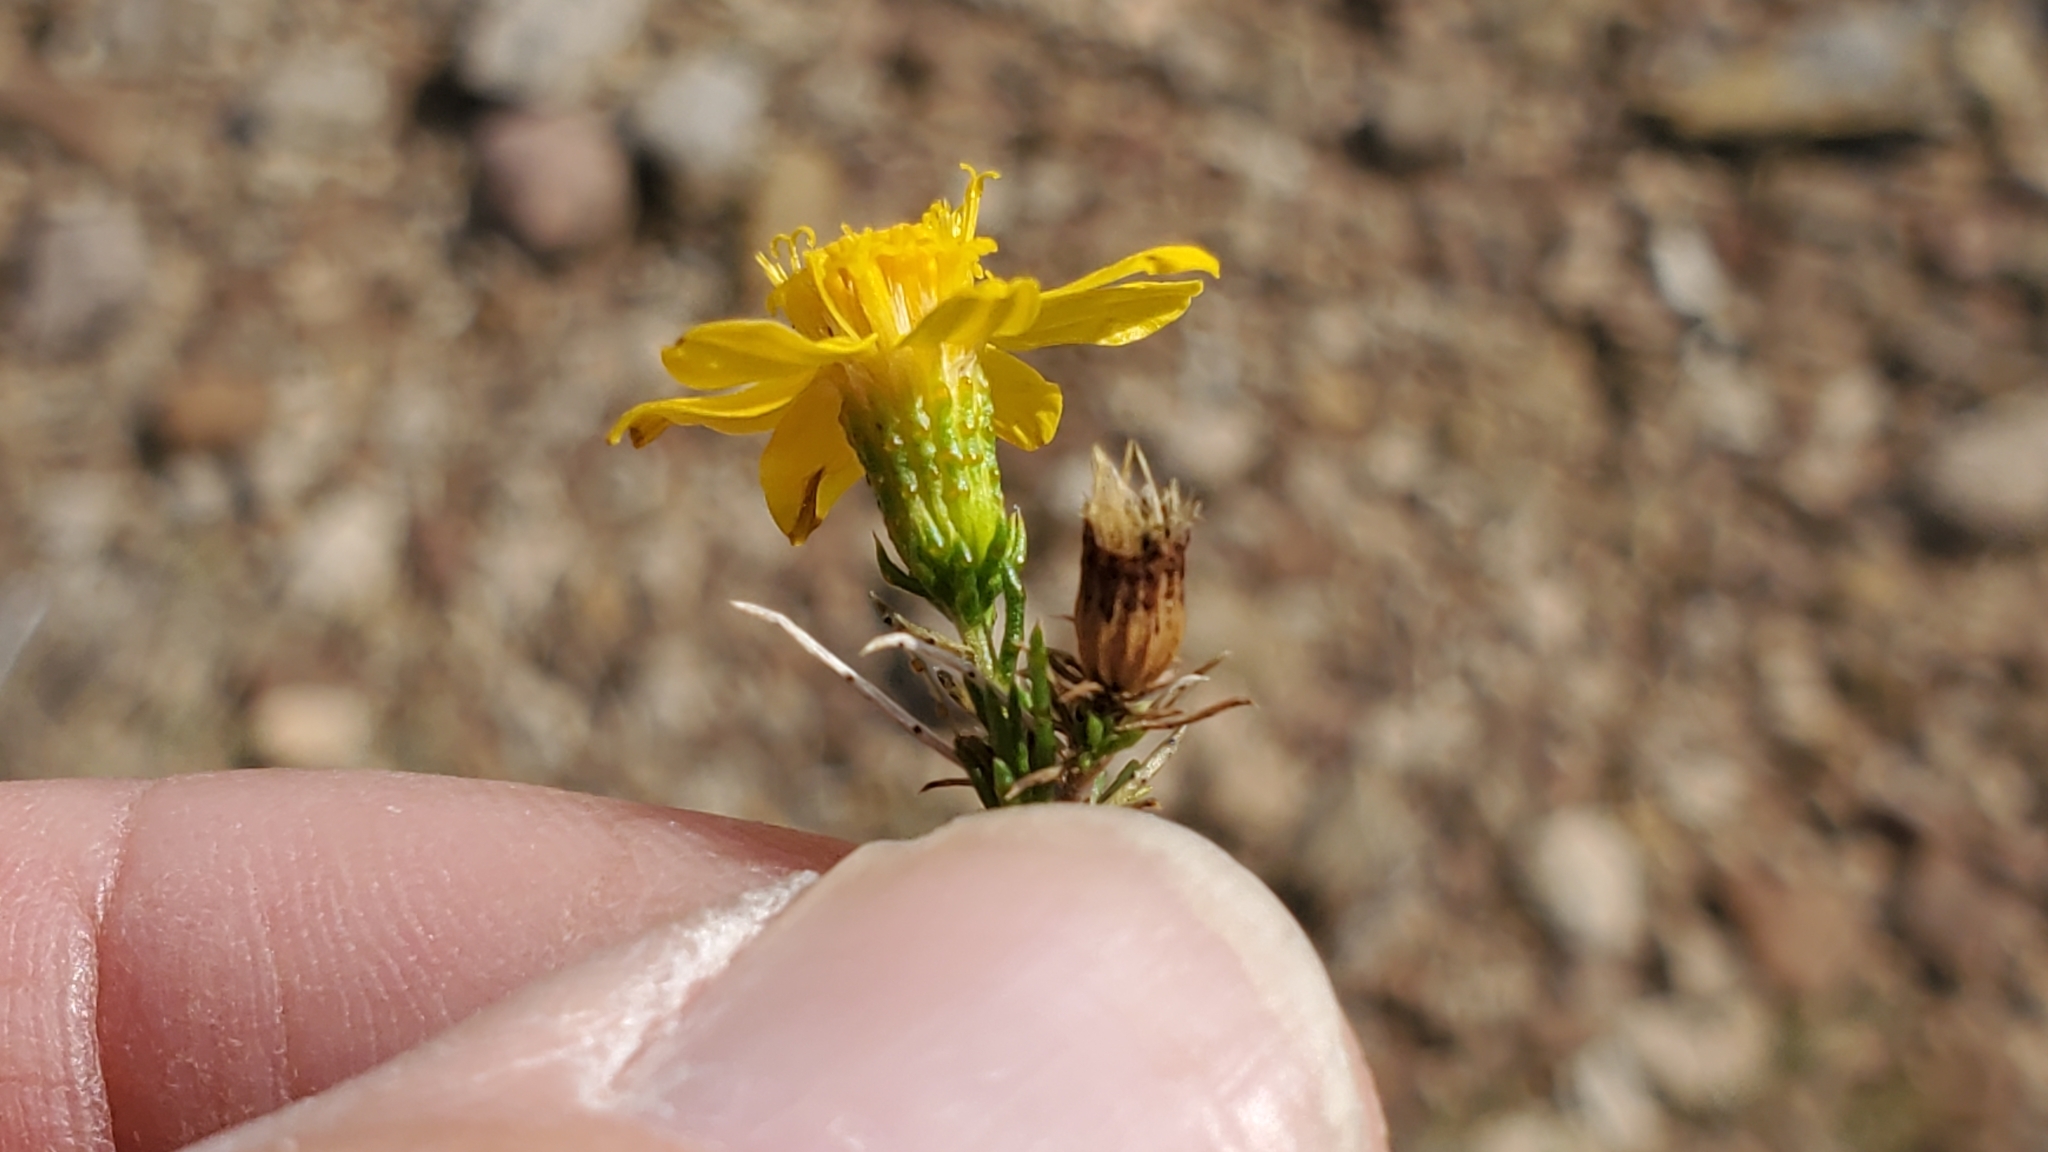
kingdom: Plantae
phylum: Tracheophyta
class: Magnoliopsida
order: Asterales
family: Asteraceae
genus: Thymophylla
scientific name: Thymophylla acerosa
